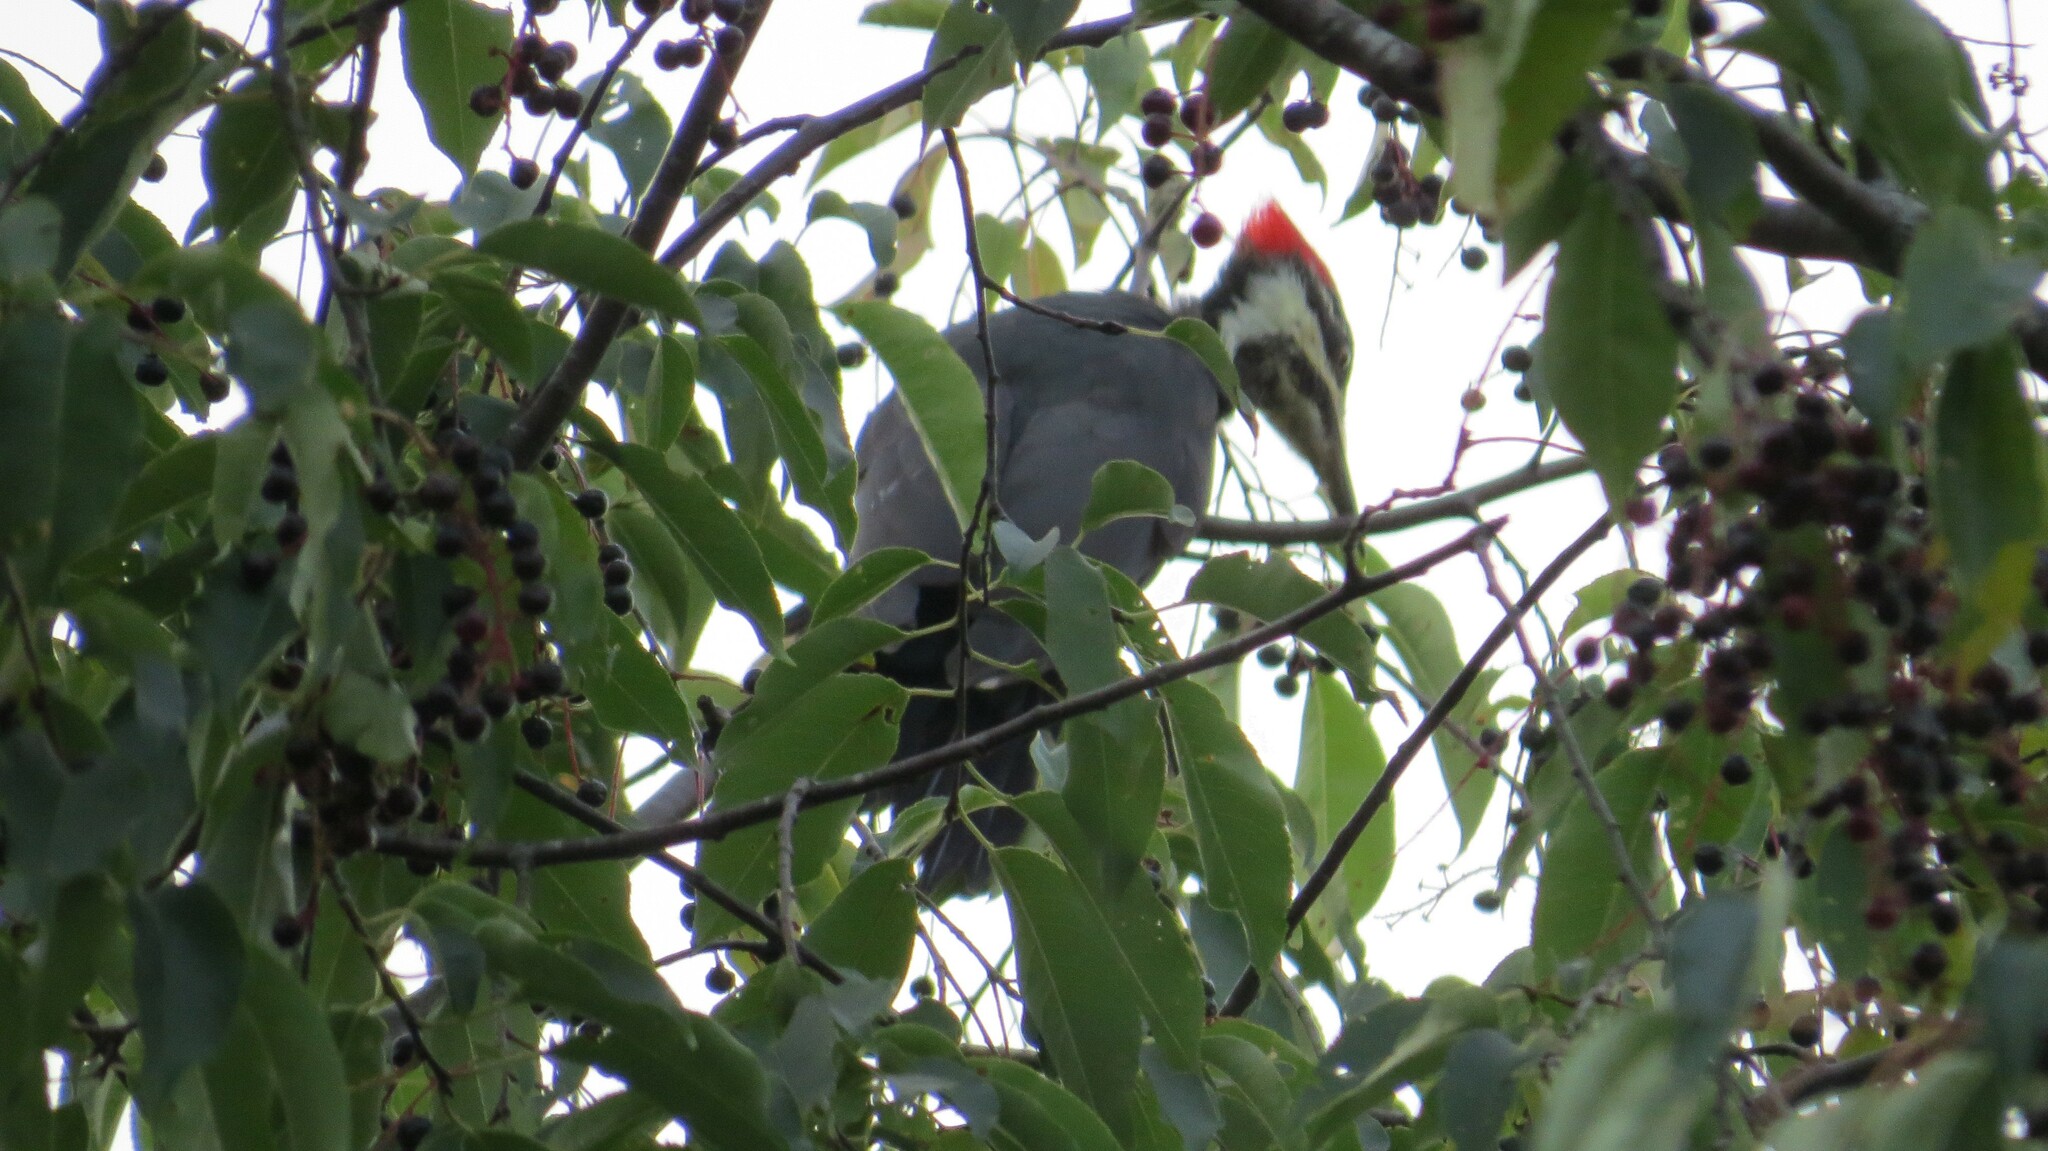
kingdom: Animalia
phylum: Chordata
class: Aves
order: Piciformes
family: Picidae
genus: Dryocopus
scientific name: Dryocopus pileatus
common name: Pileated woodpecker
